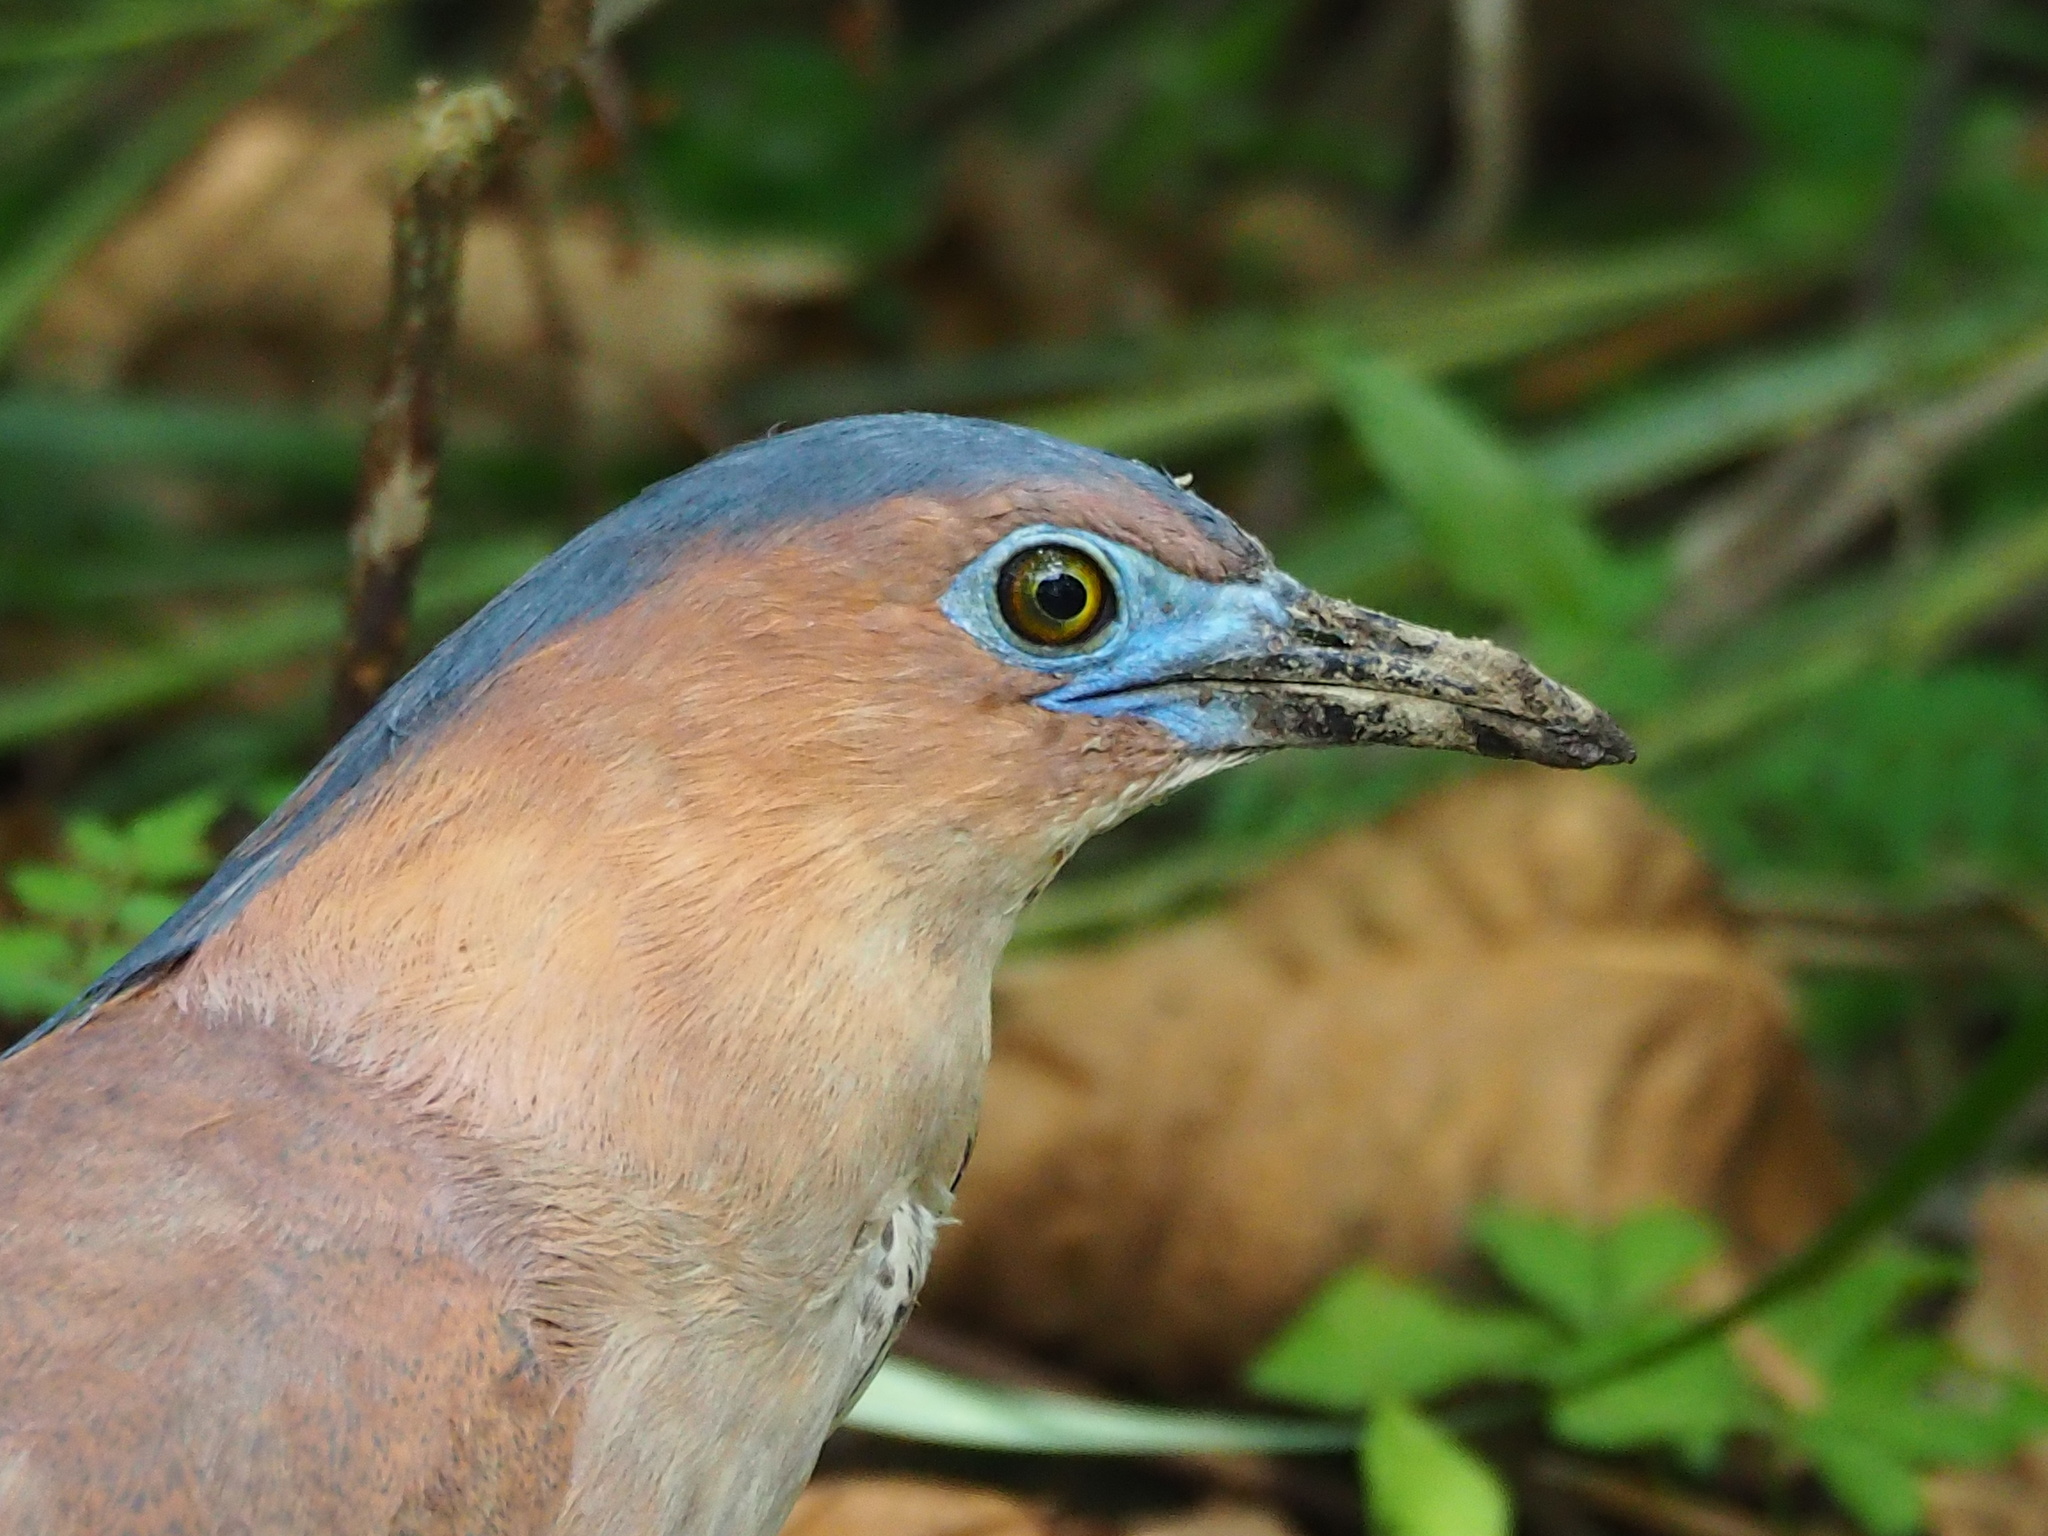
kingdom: Animalia
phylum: Chordata
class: Aves
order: Pelecaniformes
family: Ardeidae
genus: Gorsachius
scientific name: Gorsachius melanolophus
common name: Malayan night heron
